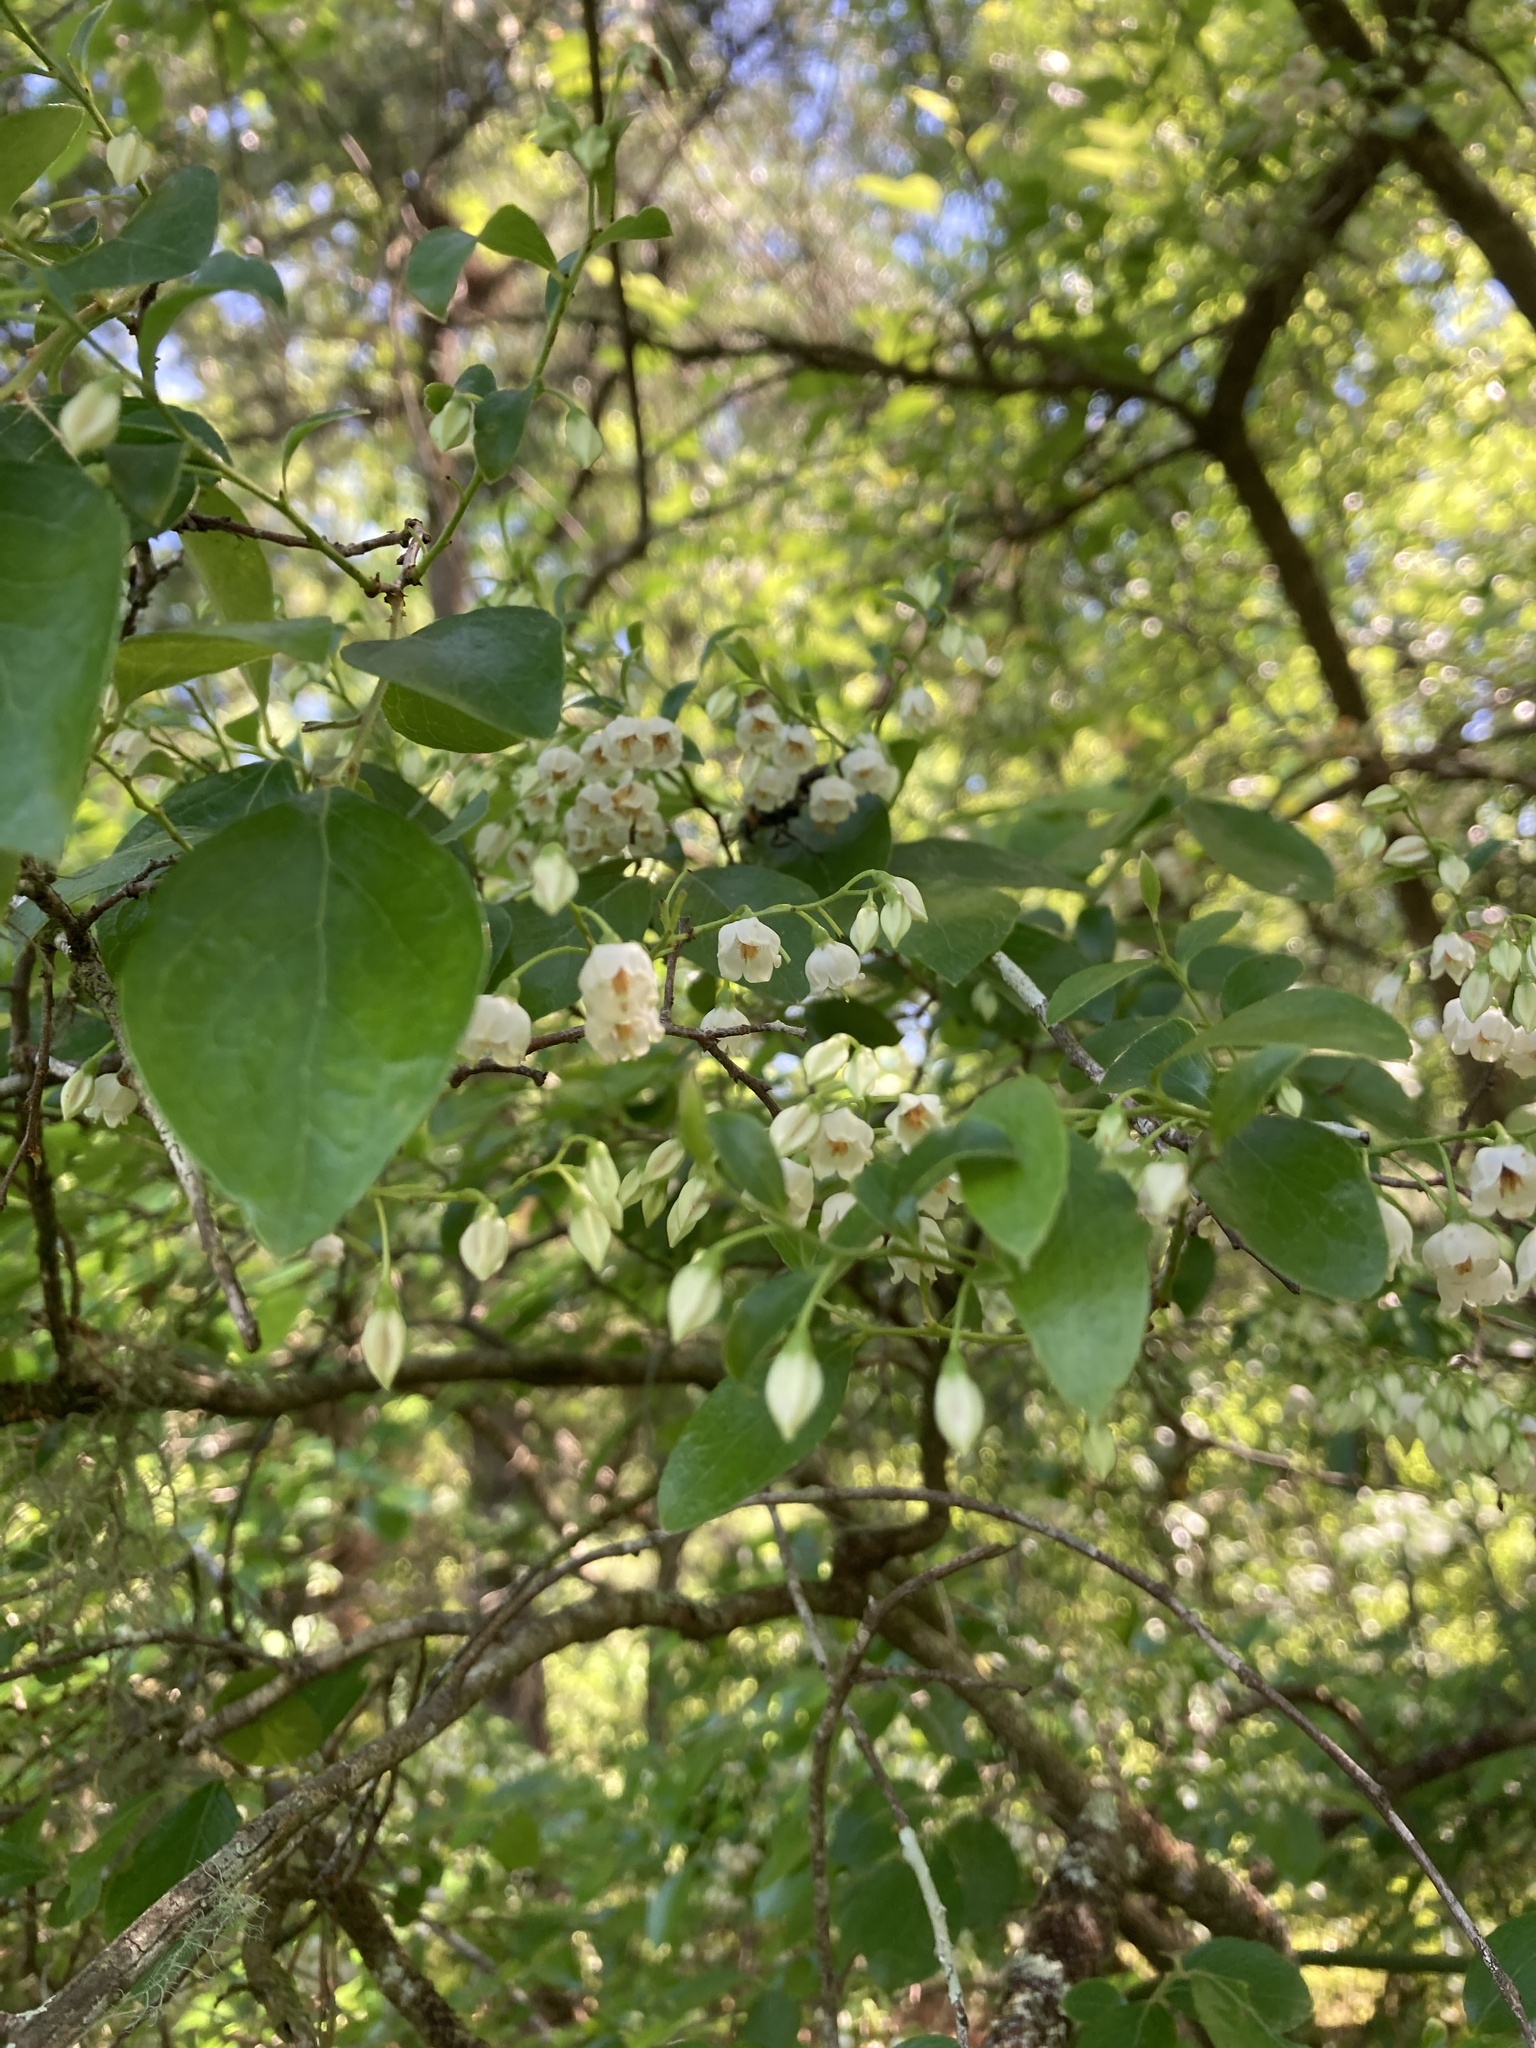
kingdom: Plantae
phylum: Tracheophyta
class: Magnoliopsida
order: Ericales
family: Ericaceae
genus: Vaccinium
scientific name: Vaccinium arboreum
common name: Farkleberry
